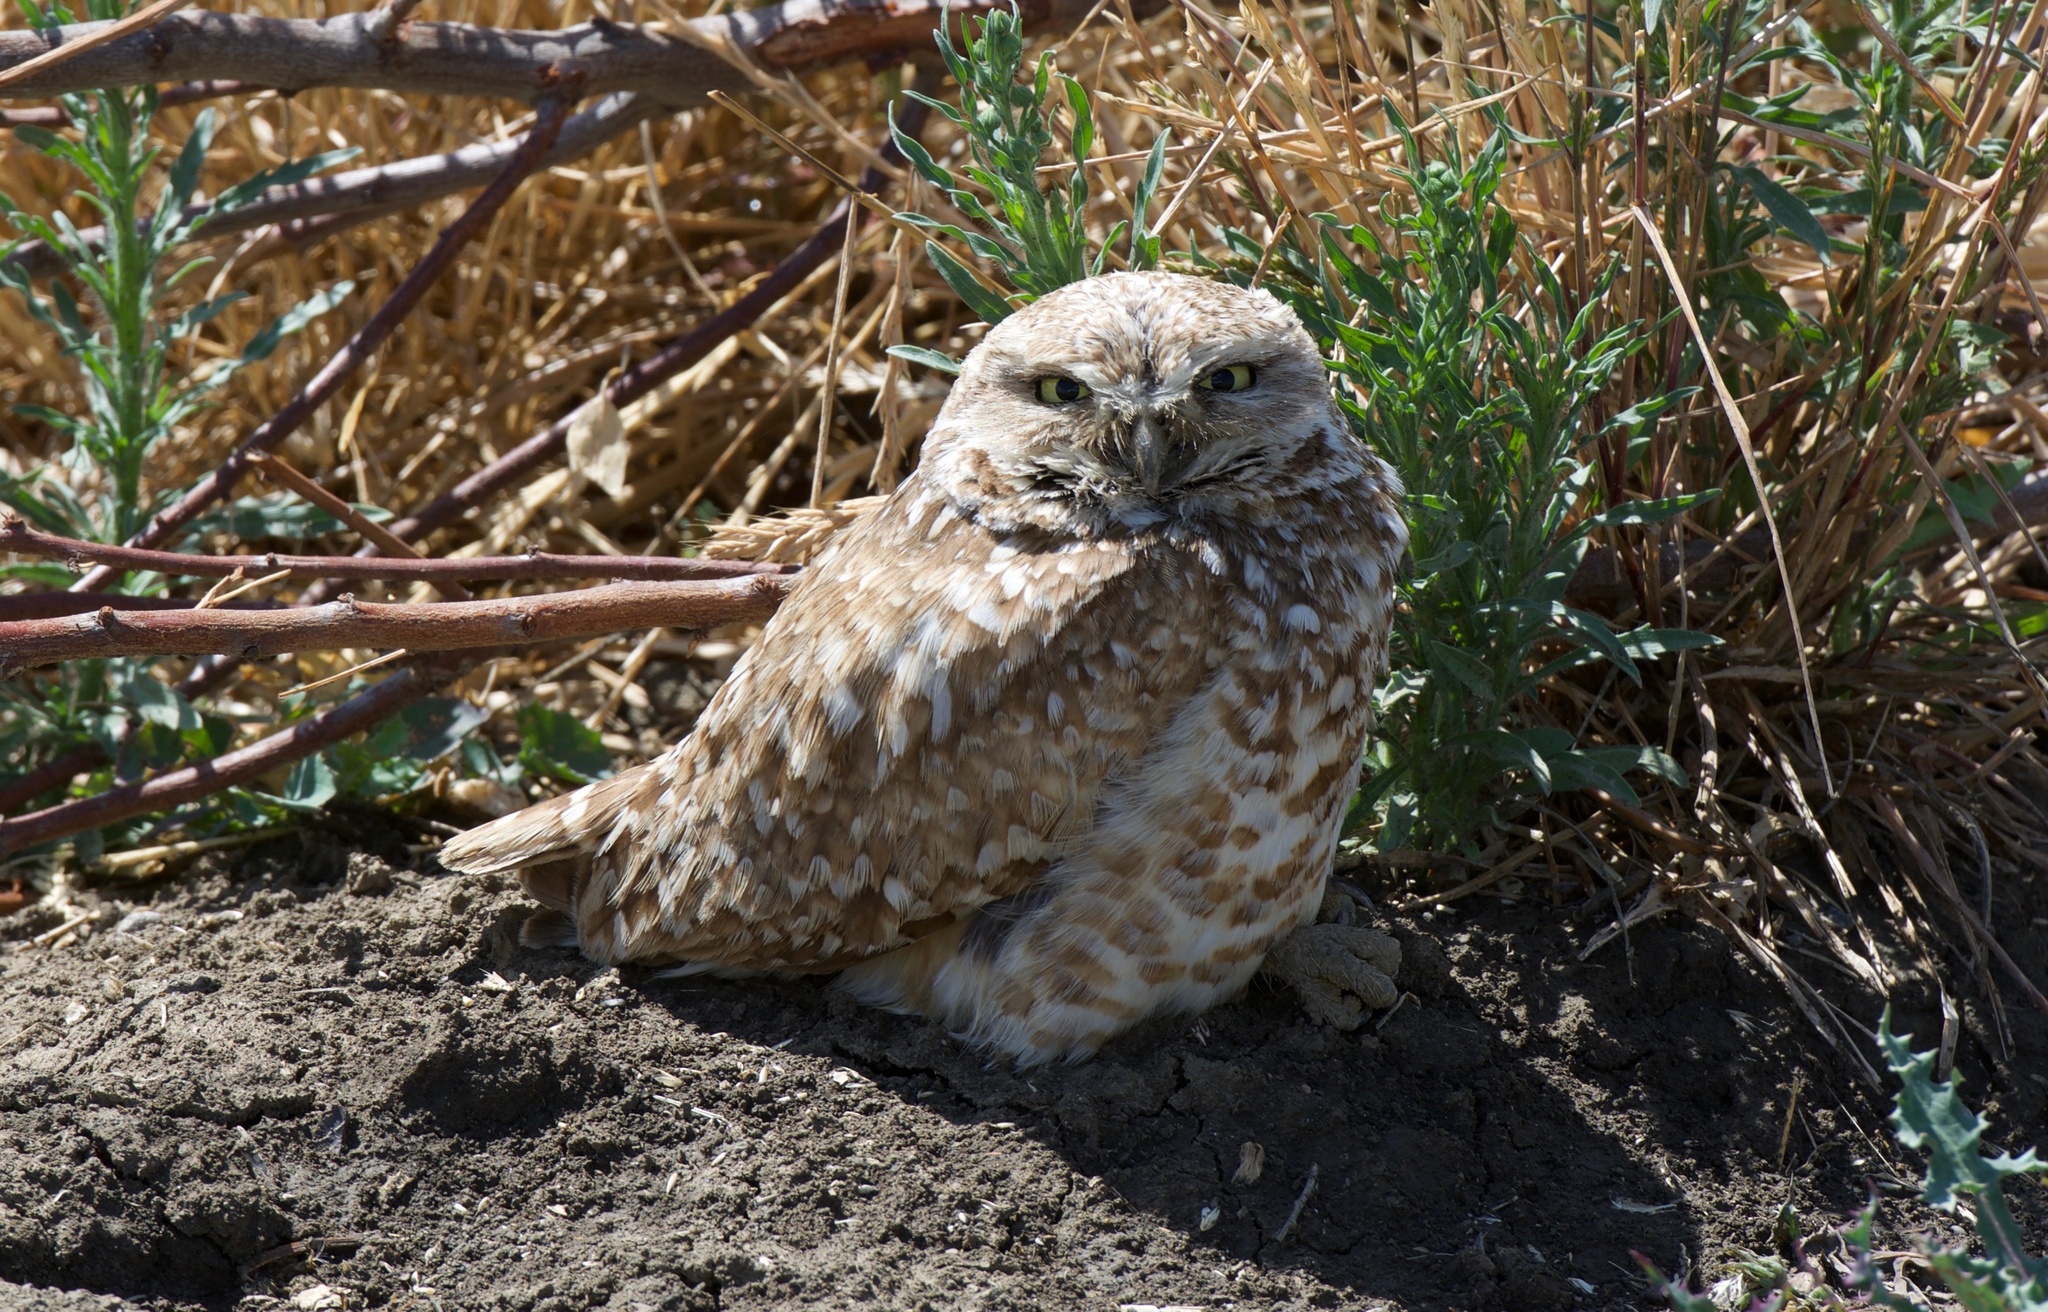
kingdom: Animalia
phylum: Chordata
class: Aves
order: Strigiformes
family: Strigidae
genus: Athene
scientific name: Athene cunicularia
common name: Burrowing owl
